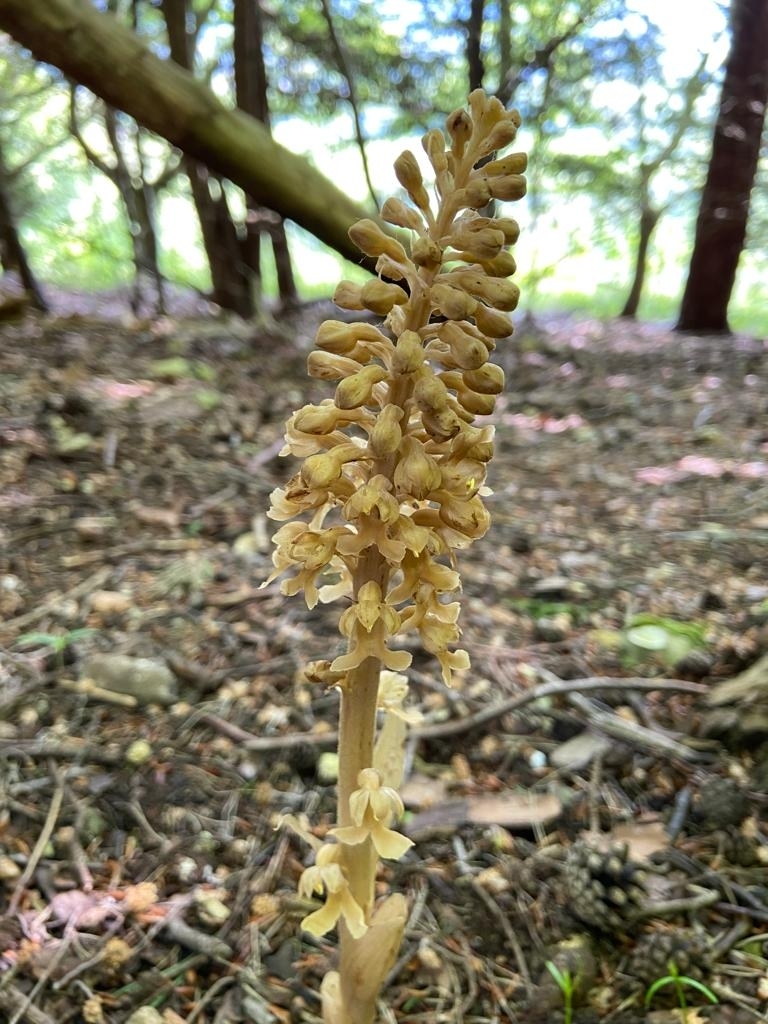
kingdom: Plantae
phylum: Tracheophyta
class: Liliopsida
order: Asparagales
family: Orchidaceae
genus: Neottia
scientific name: Neottia nidus-avis
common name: Bird's-nest orchid
